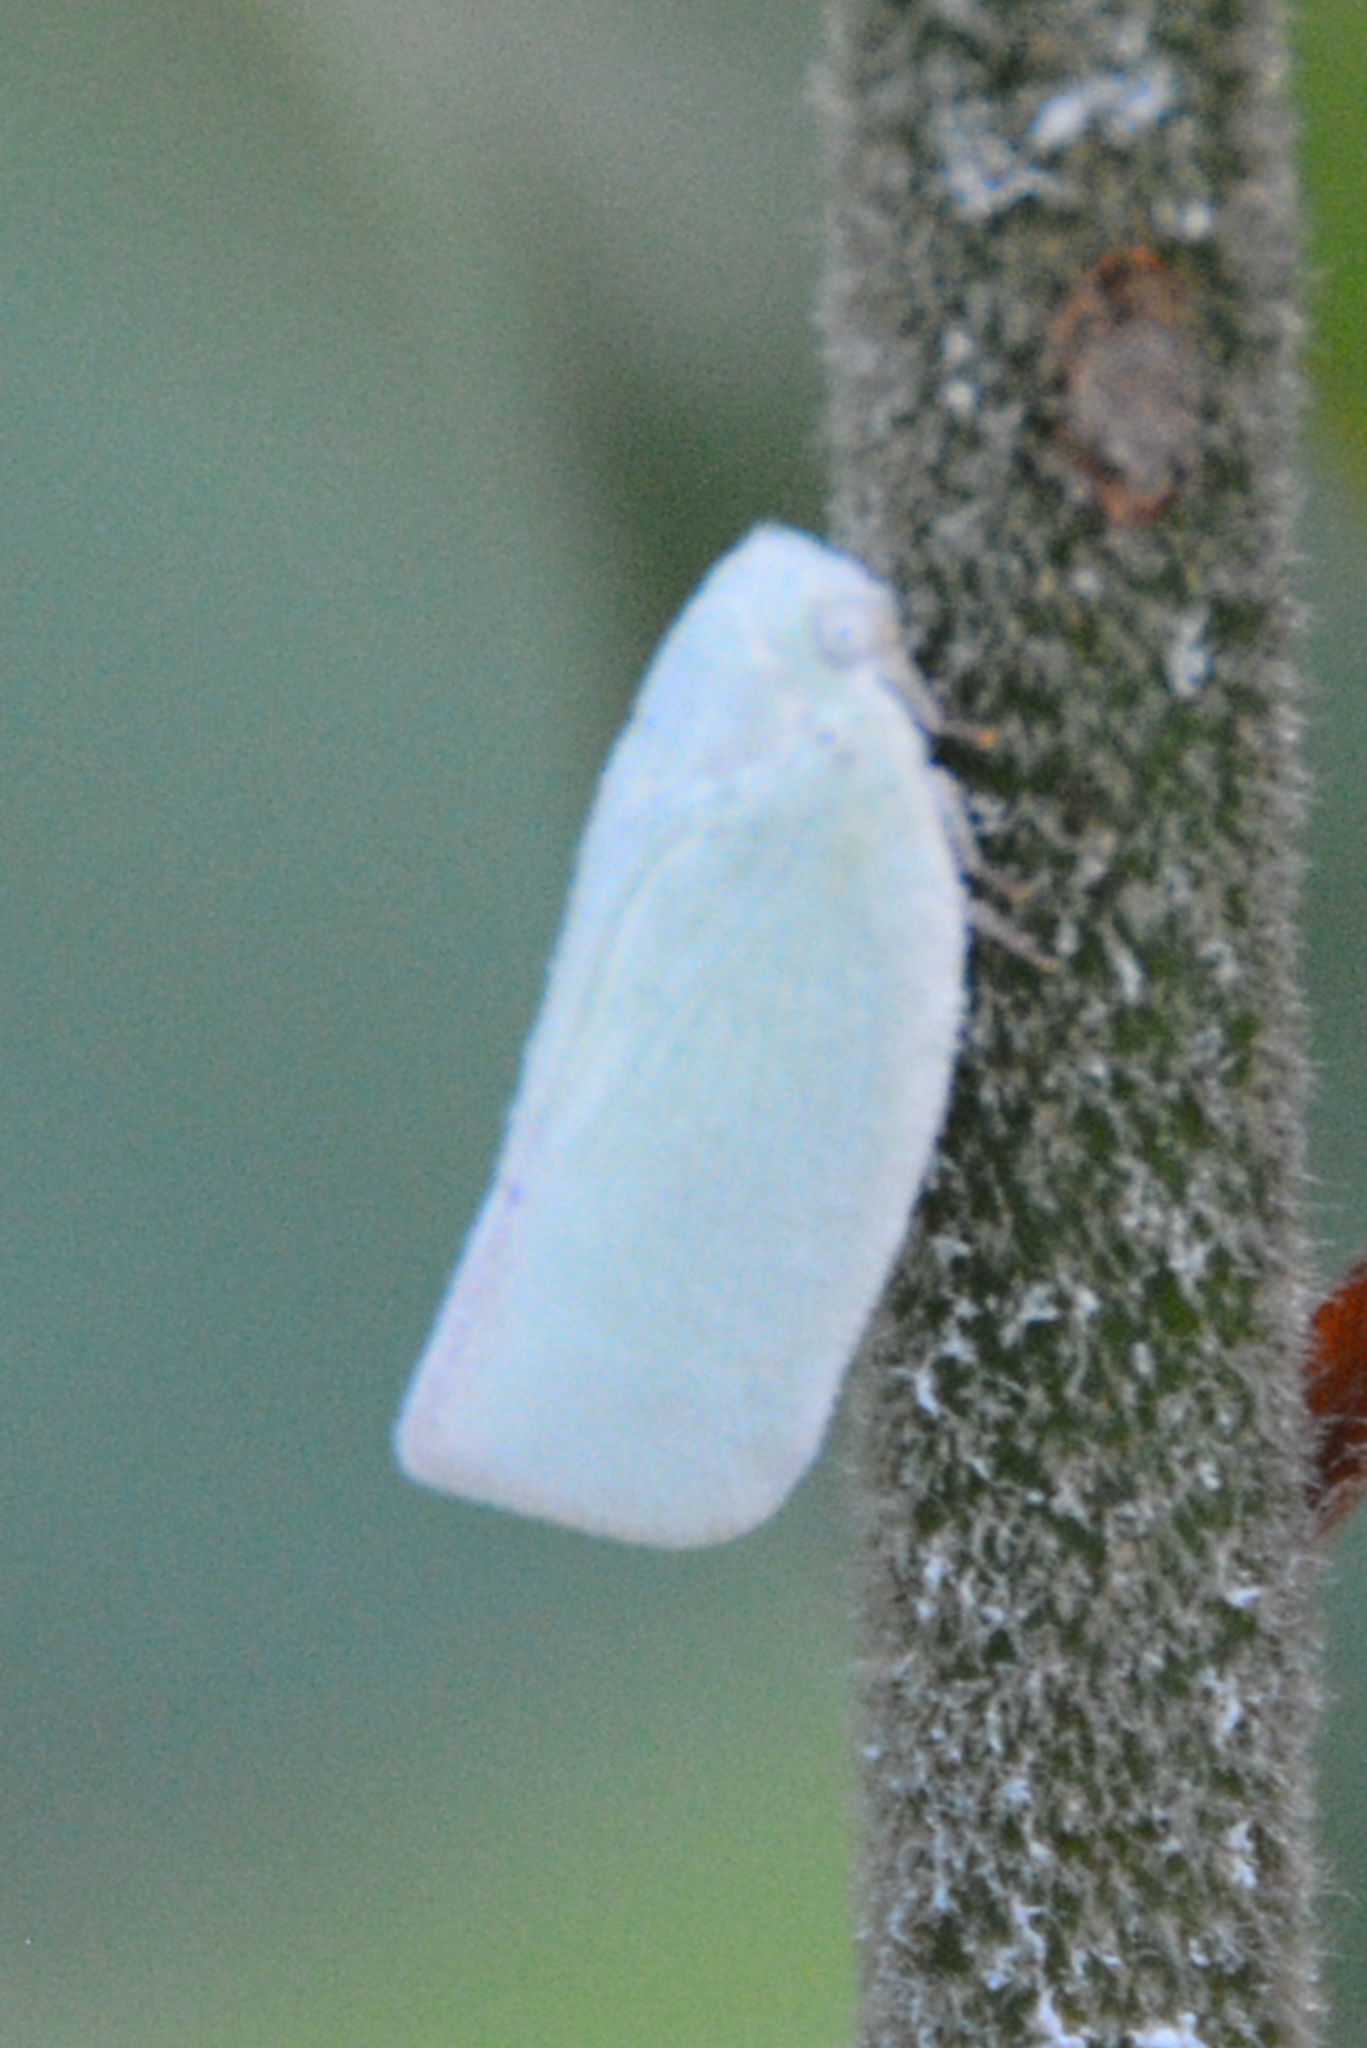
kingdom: Animalia
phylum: Arthropoda
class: Insecta
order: Hemiptera
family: Flatidae
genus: Flatormenis
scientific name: Flatormenis proxima
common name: Northern flatid planthopper
